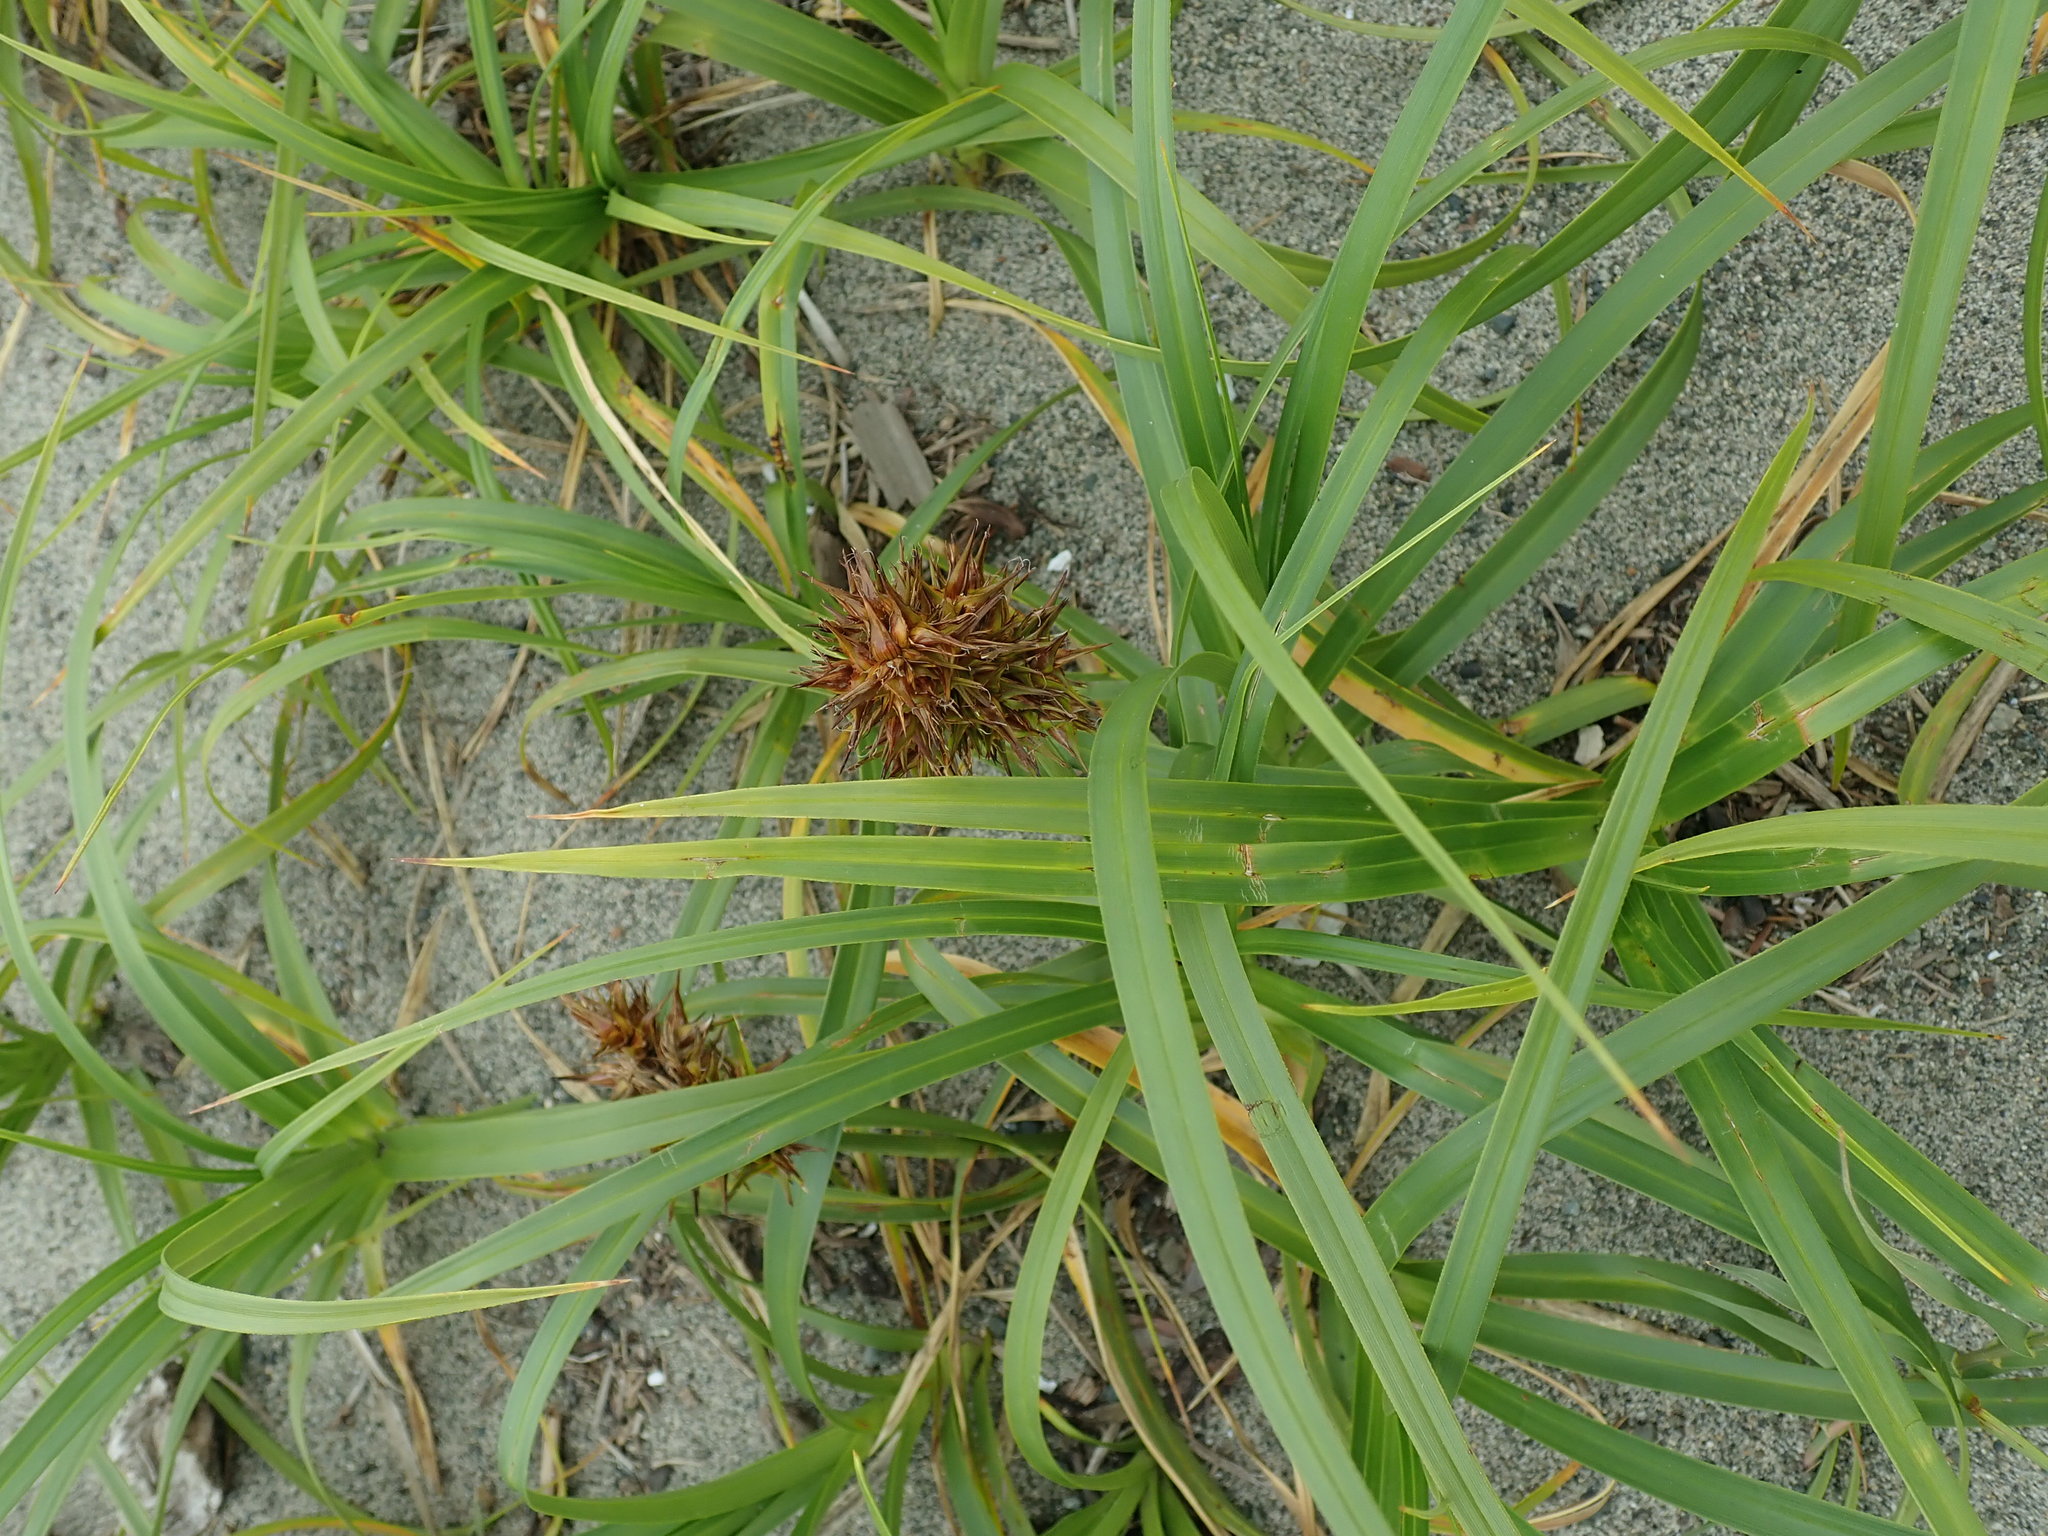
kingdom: Plantae
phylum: Tracheophyta
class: Liliopsida
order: Poales
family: Cyperaceae
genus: Carex
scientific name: Carex macrocephala
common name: Large-head sedge
